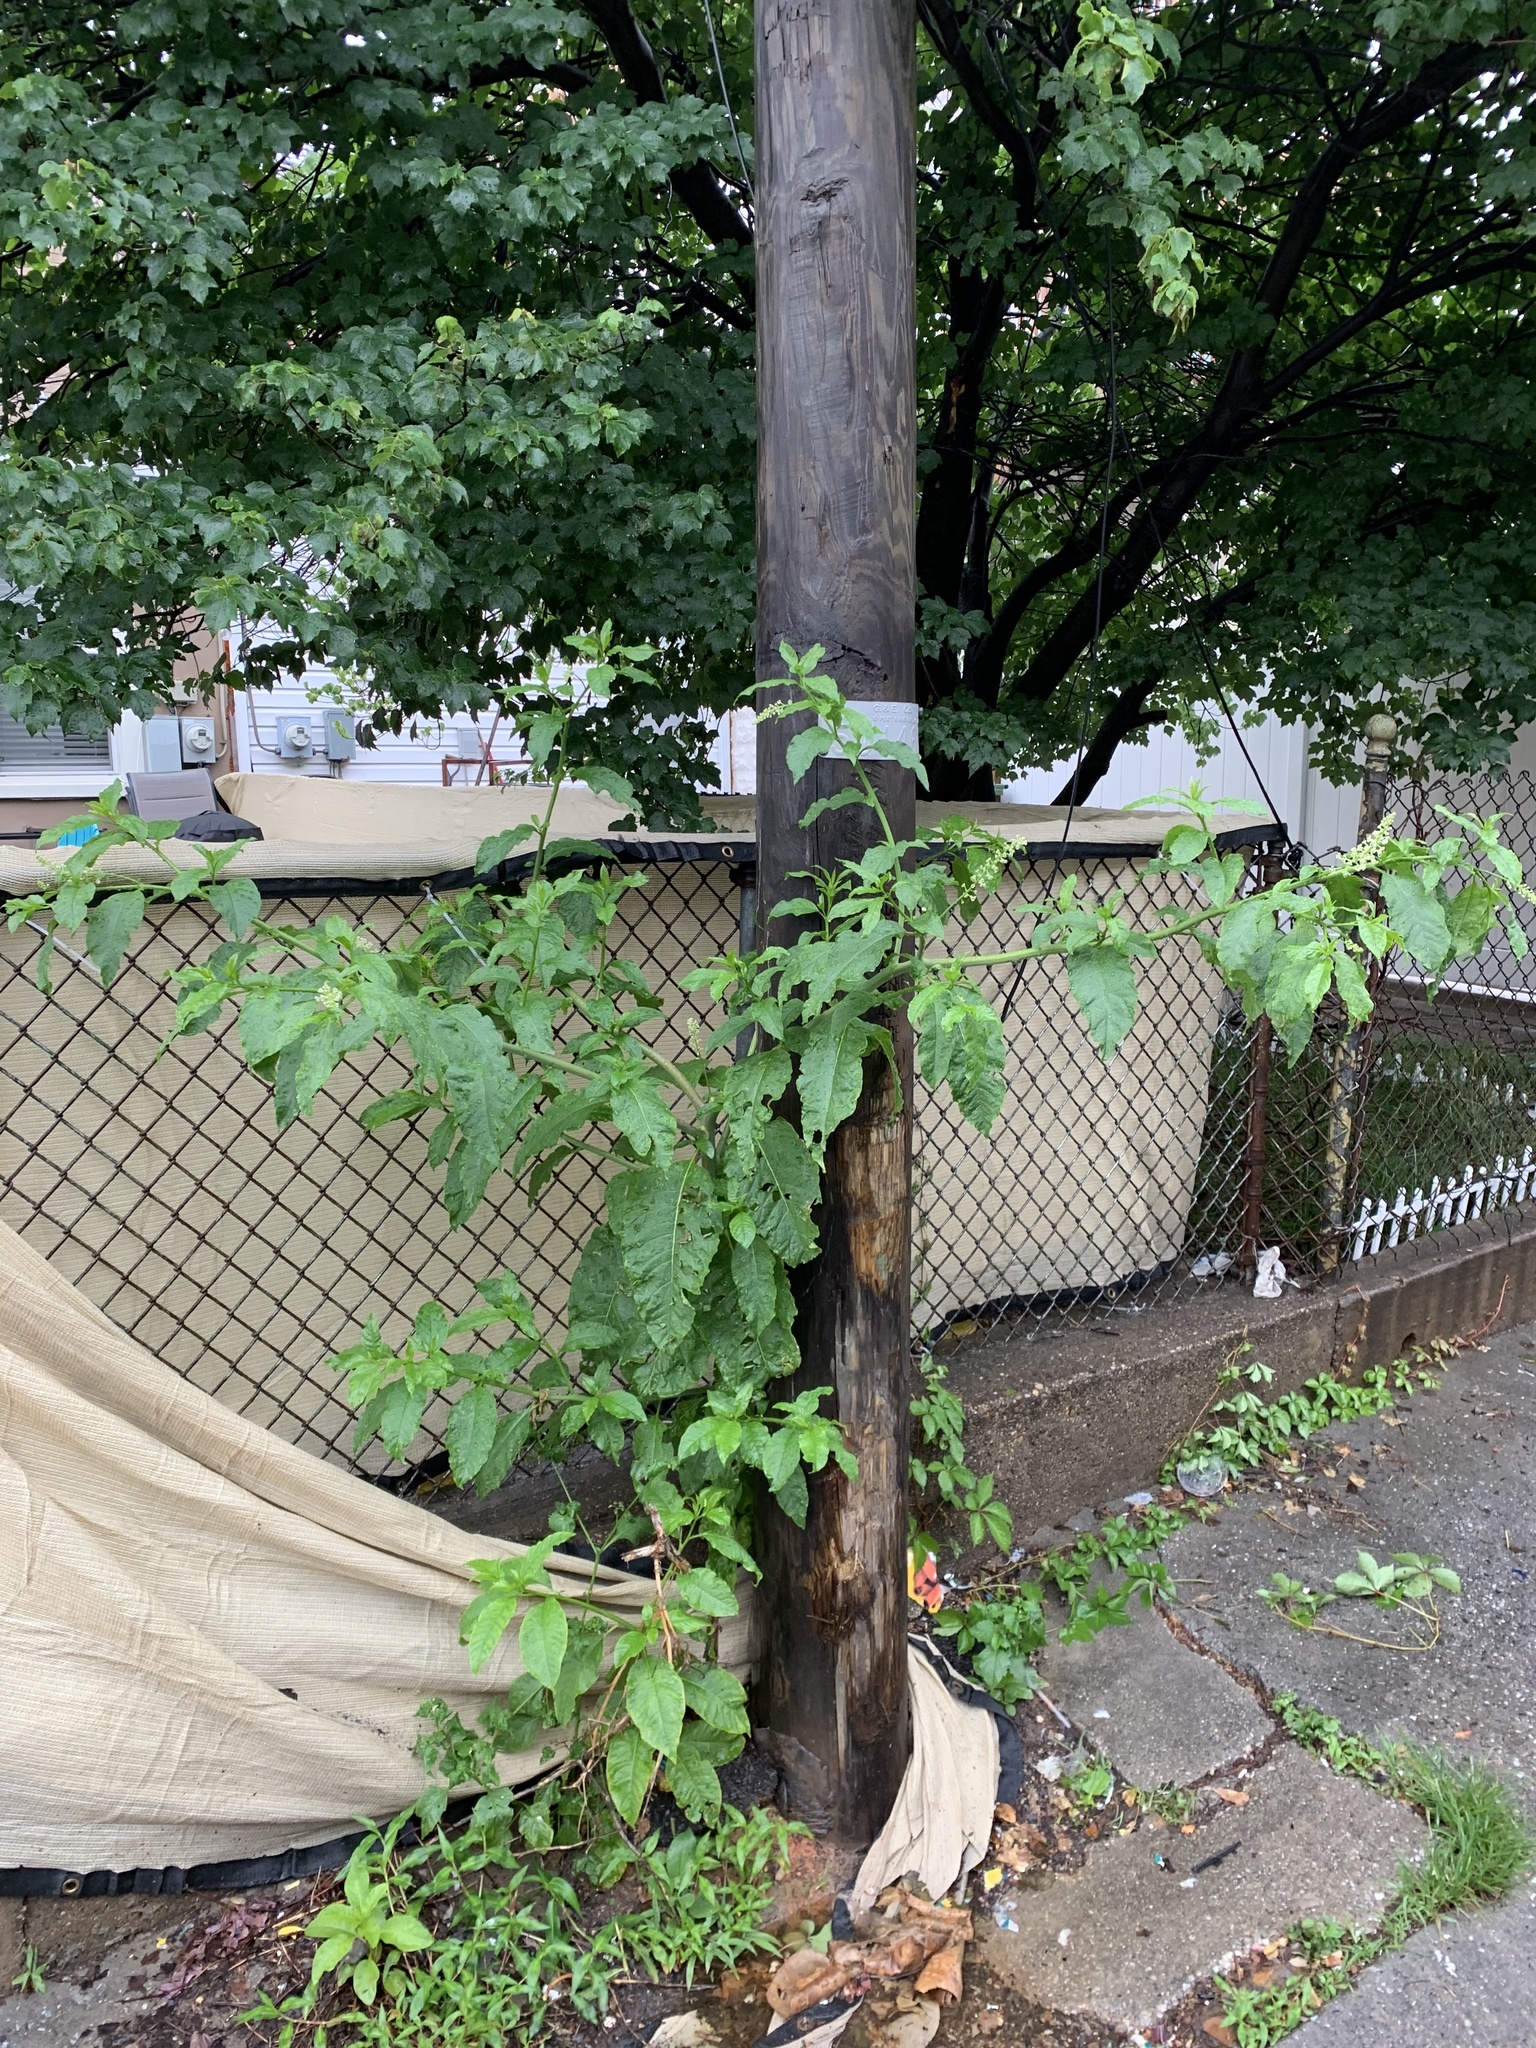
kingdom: Plantae
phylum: Tracheophyta
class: Magnoliopsida
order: Caryophyllales
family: Phytolaccaceae
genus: Phytolacca
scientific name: Phytolacca americana
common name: American pokeweed
